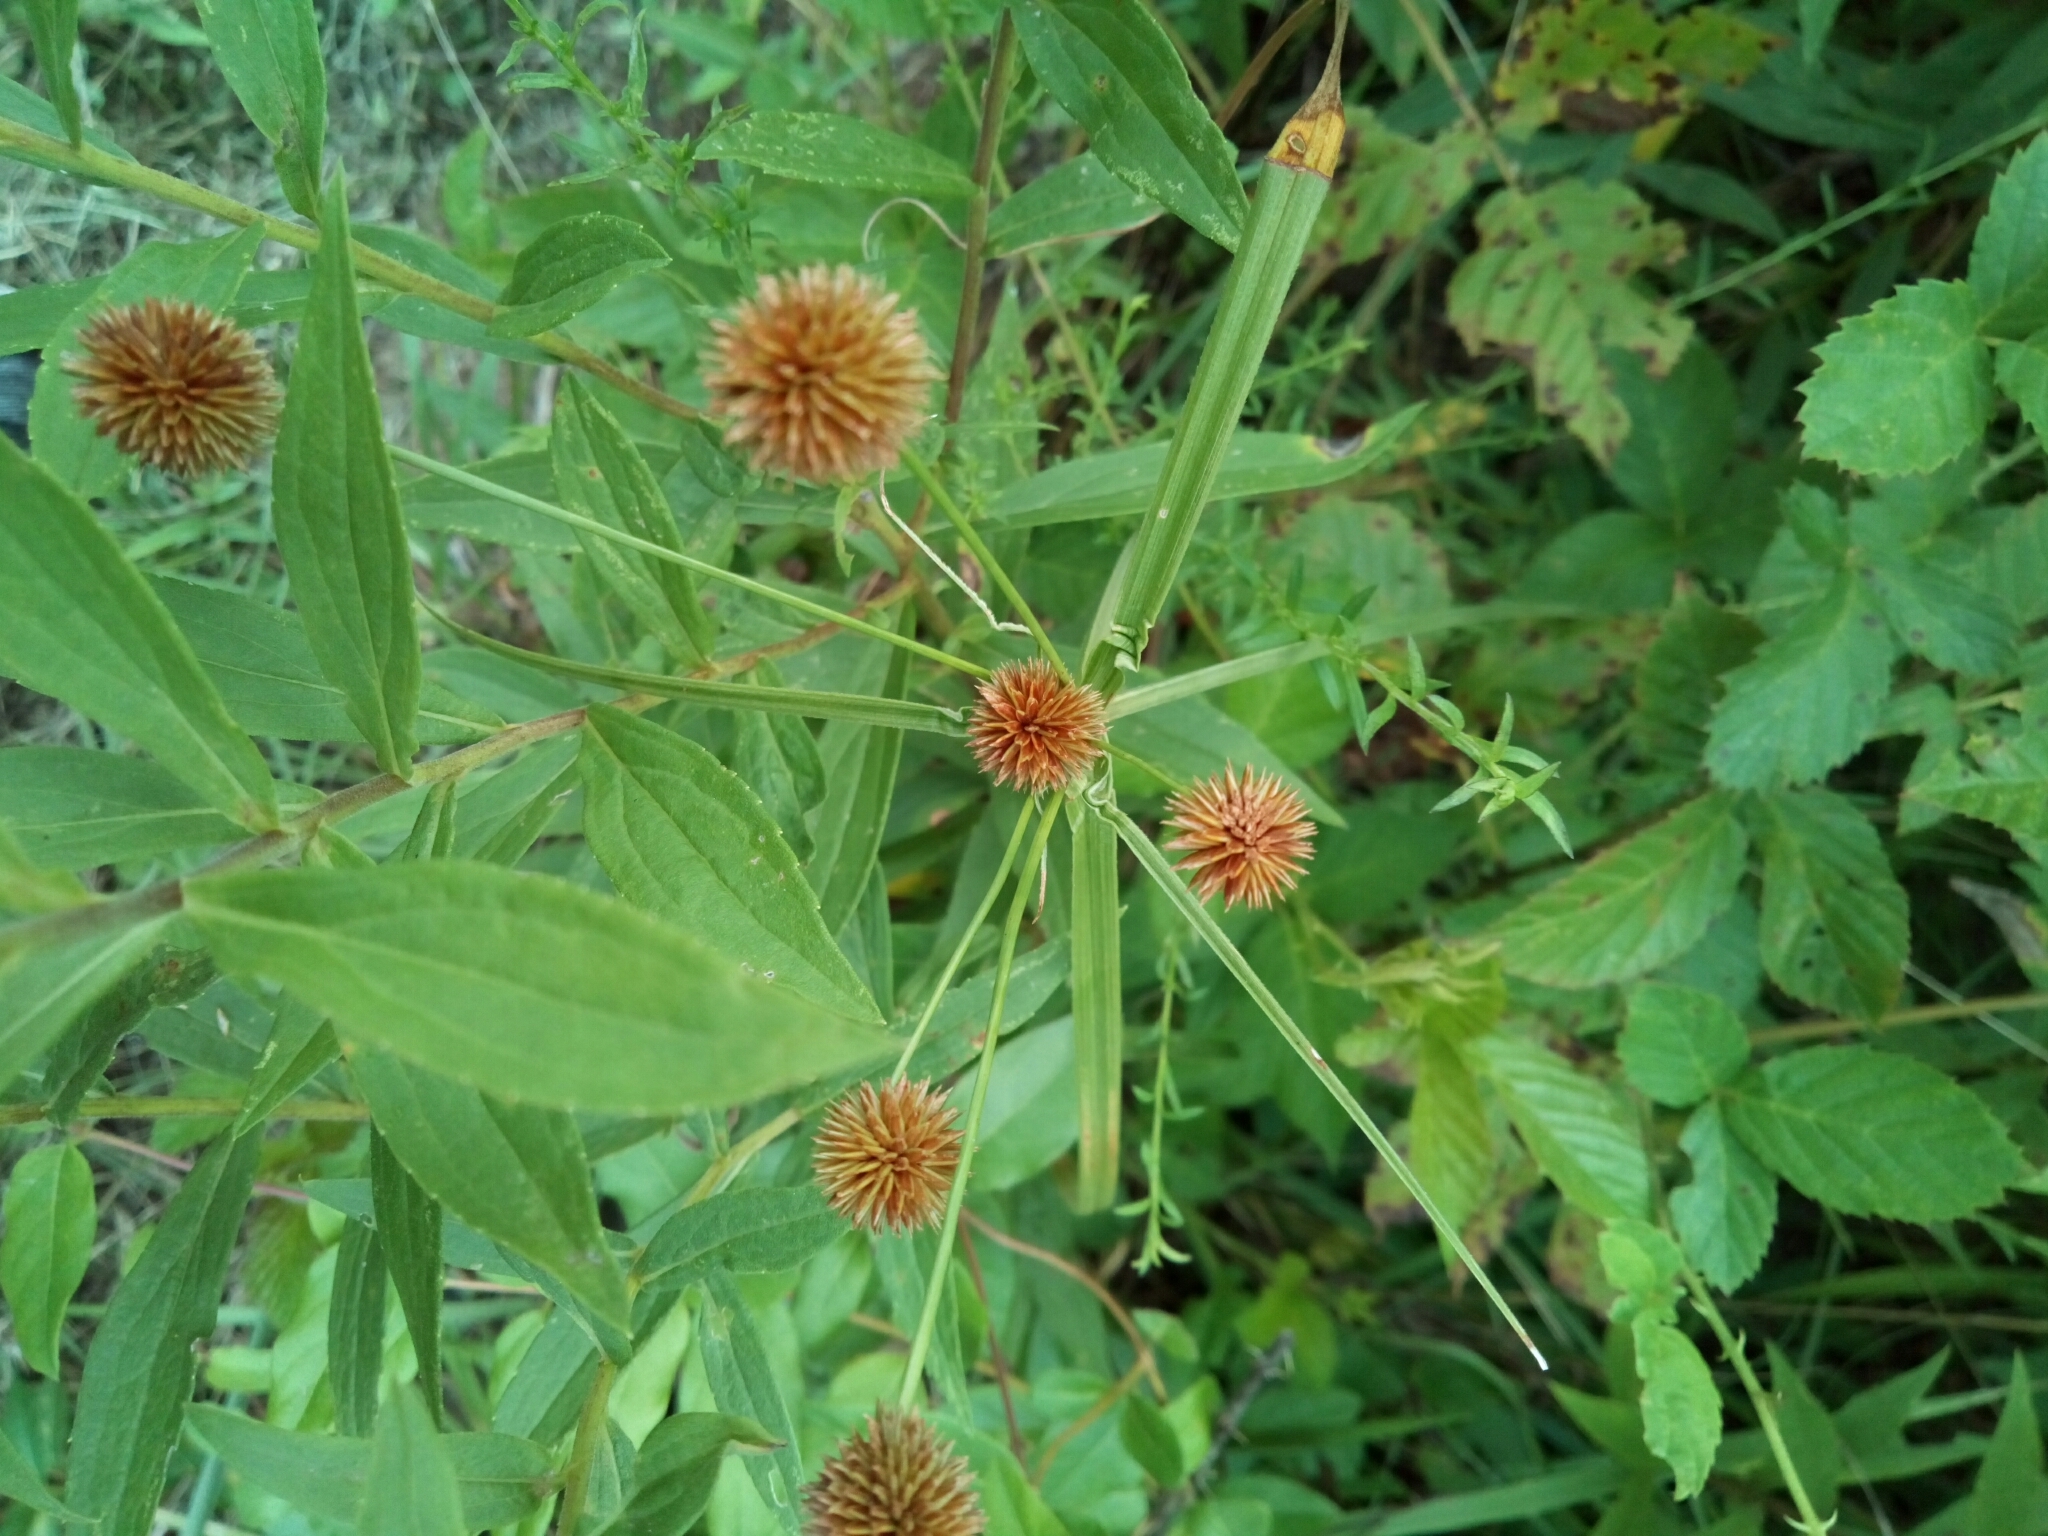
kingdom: Plantae
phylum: Tracheophyta
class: Liliopsida
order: Poales
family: Cyperaceae
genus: Cyperus
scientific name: Cyperus echinatus
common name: Teasel sedge
